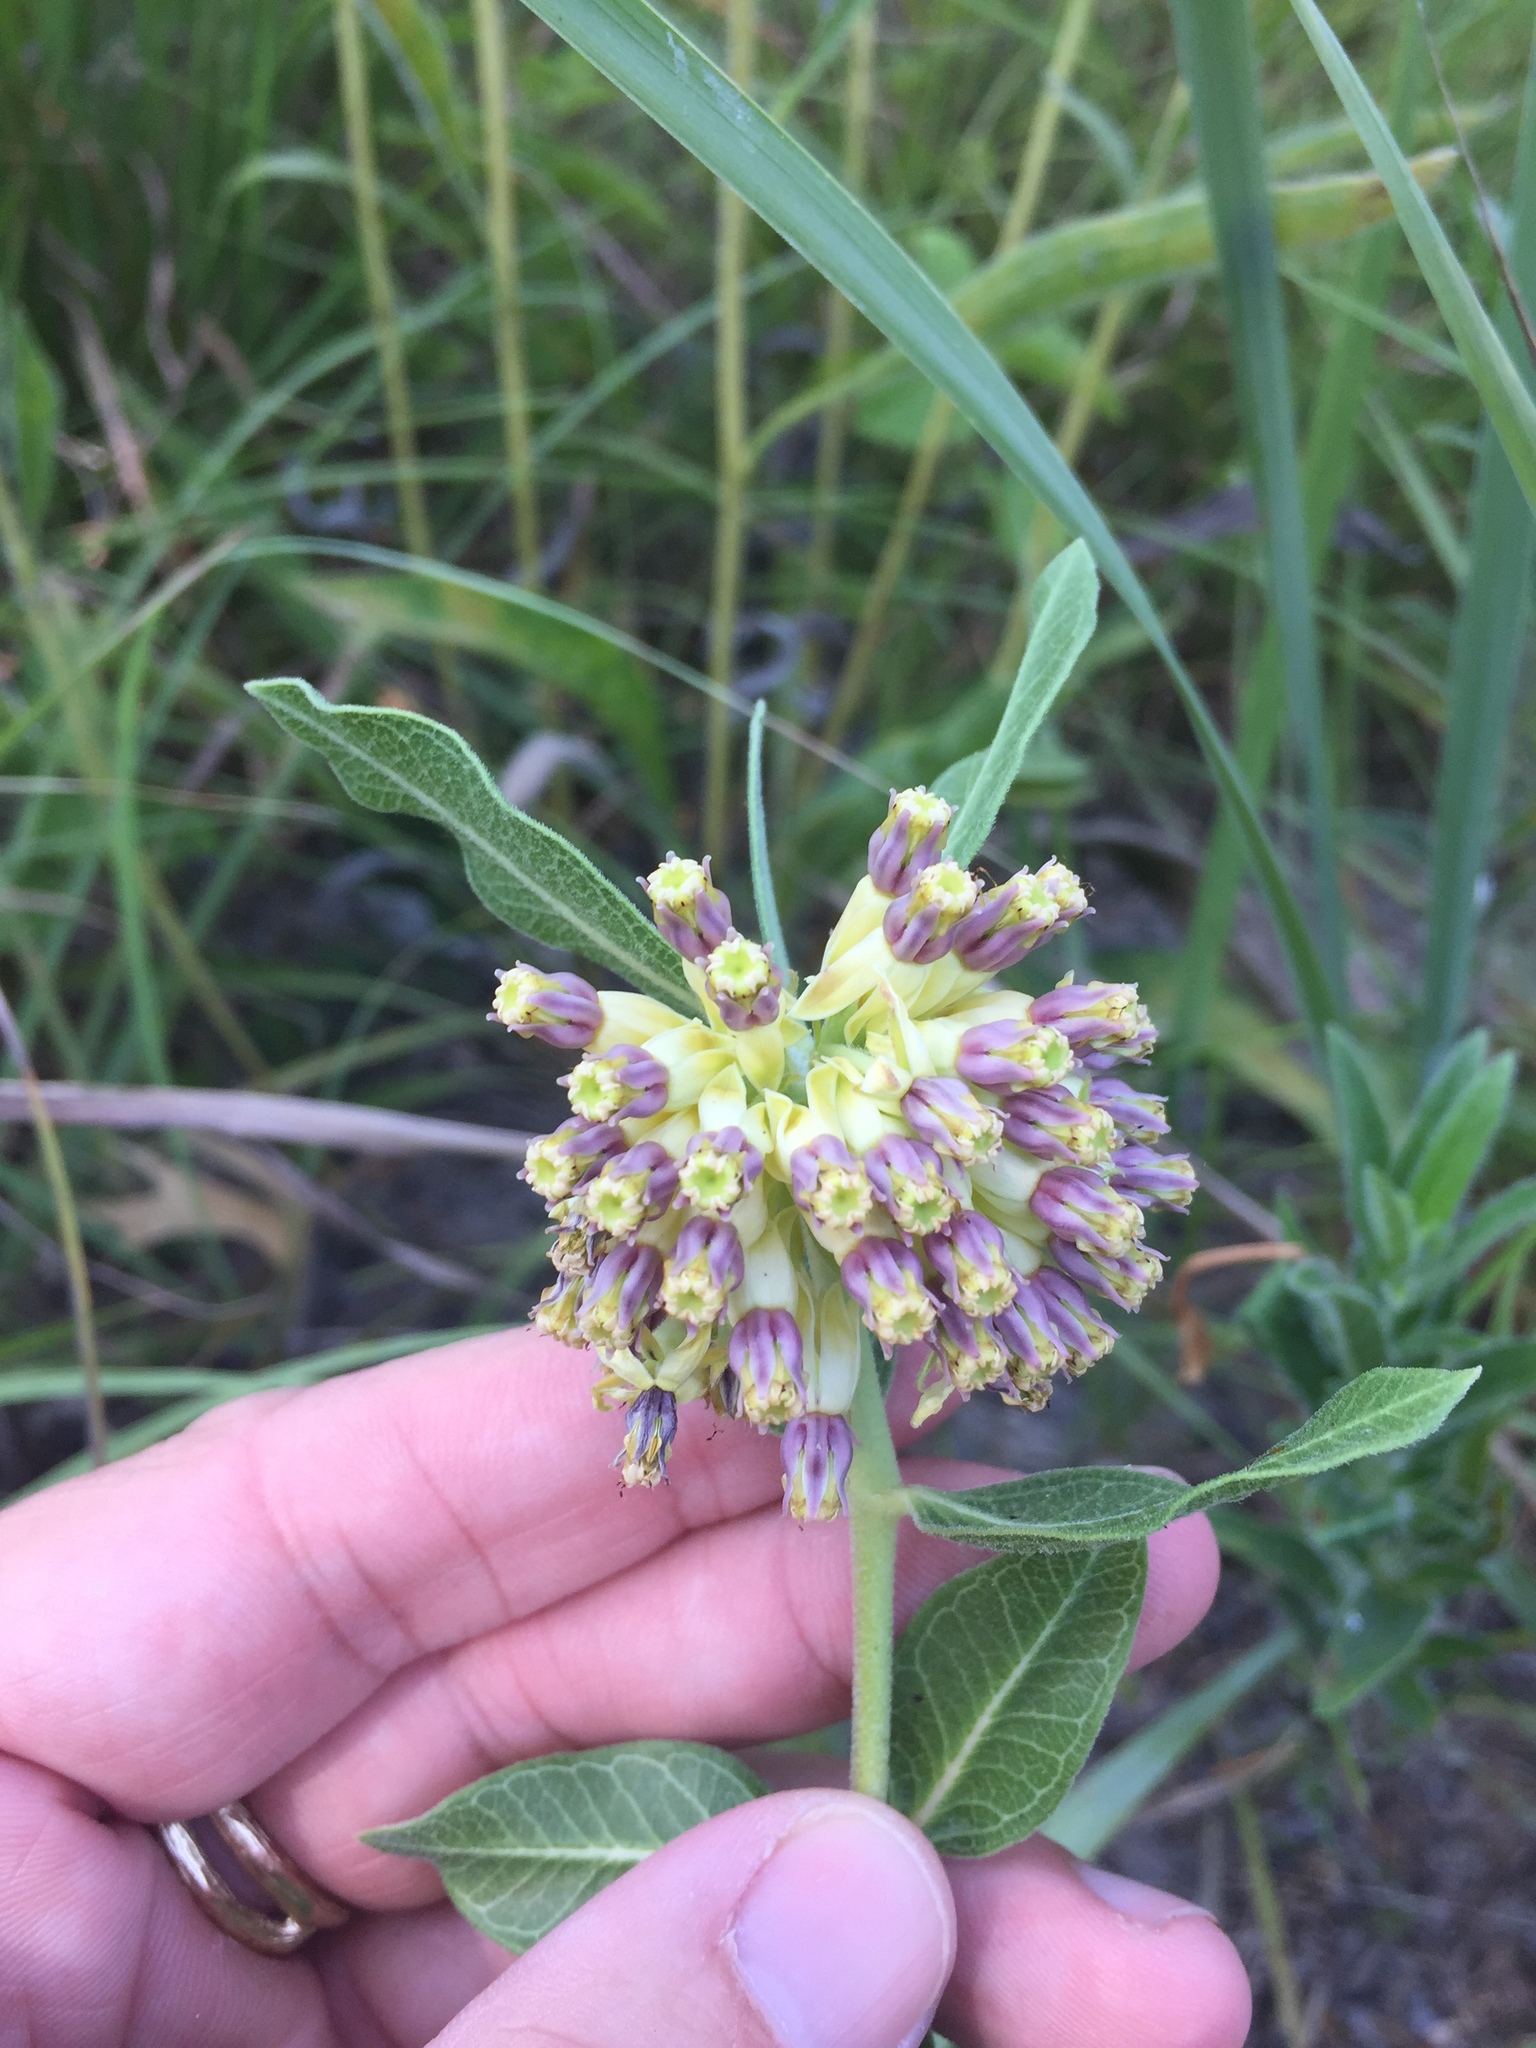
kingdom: Plantae
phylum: Tracheophyta
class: Magnoliopsida
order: Gentianales
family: Apocynaceae
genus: Asclepias
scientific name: Asclepias viridiflora
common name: Green comet milkweed
